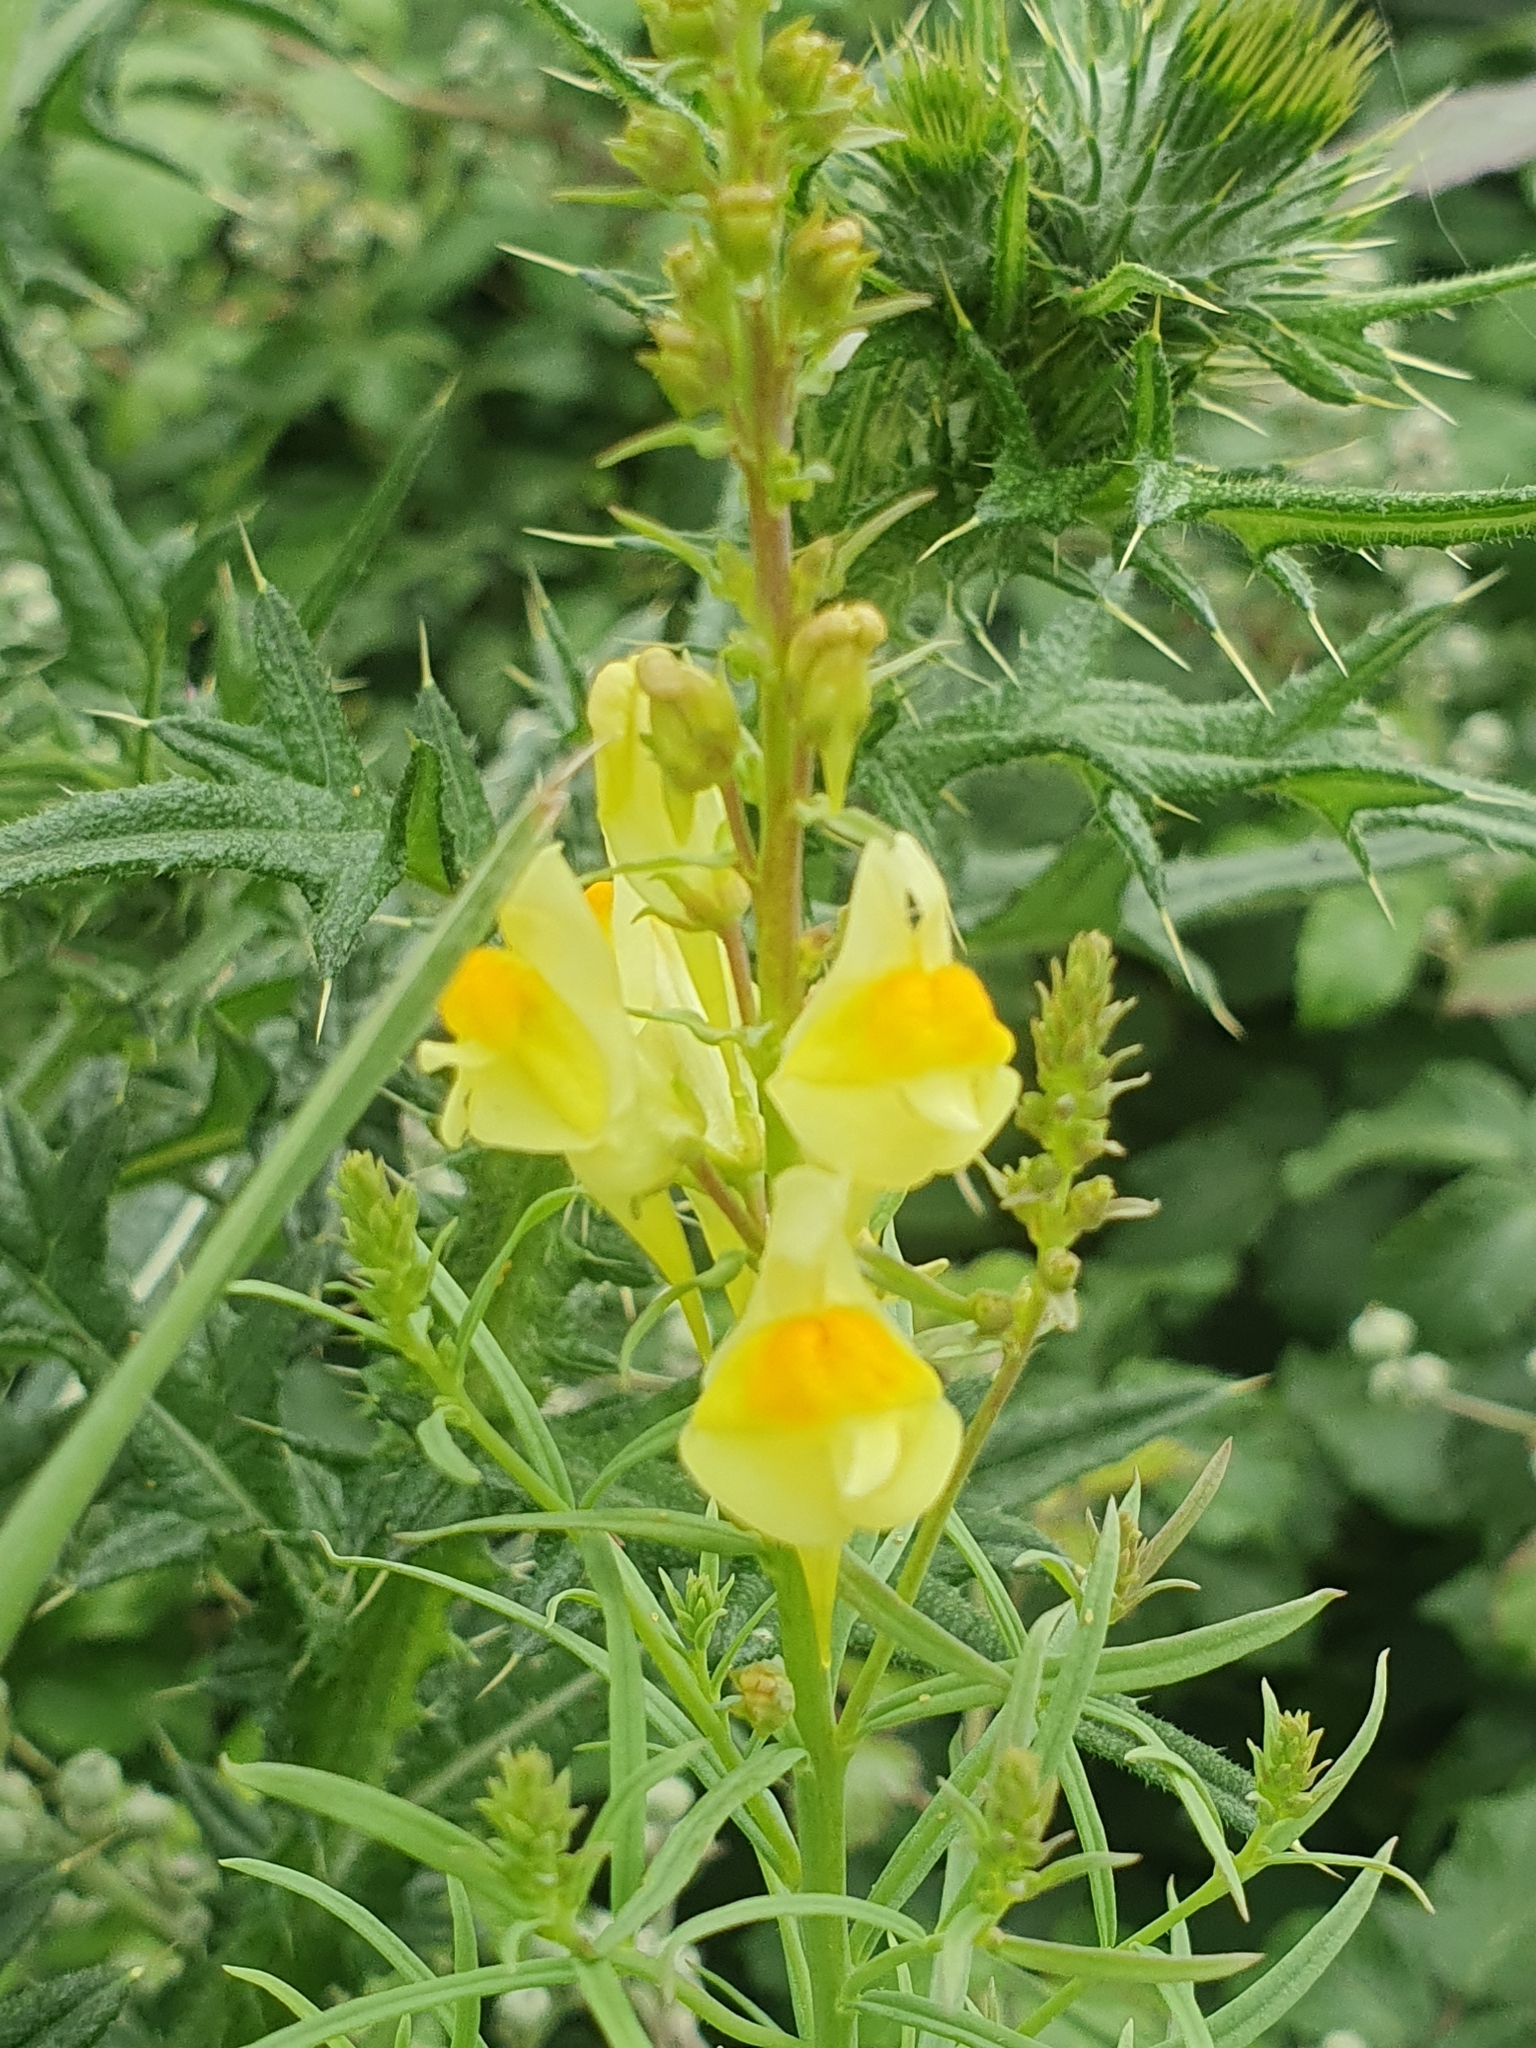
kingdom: Plantae
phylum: Tracheophyta
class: Magnoliopsida
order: Lamiales
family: Plantaginaceae
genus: Linaria
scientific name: Linaria vulgaris
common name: Butter and eggs
